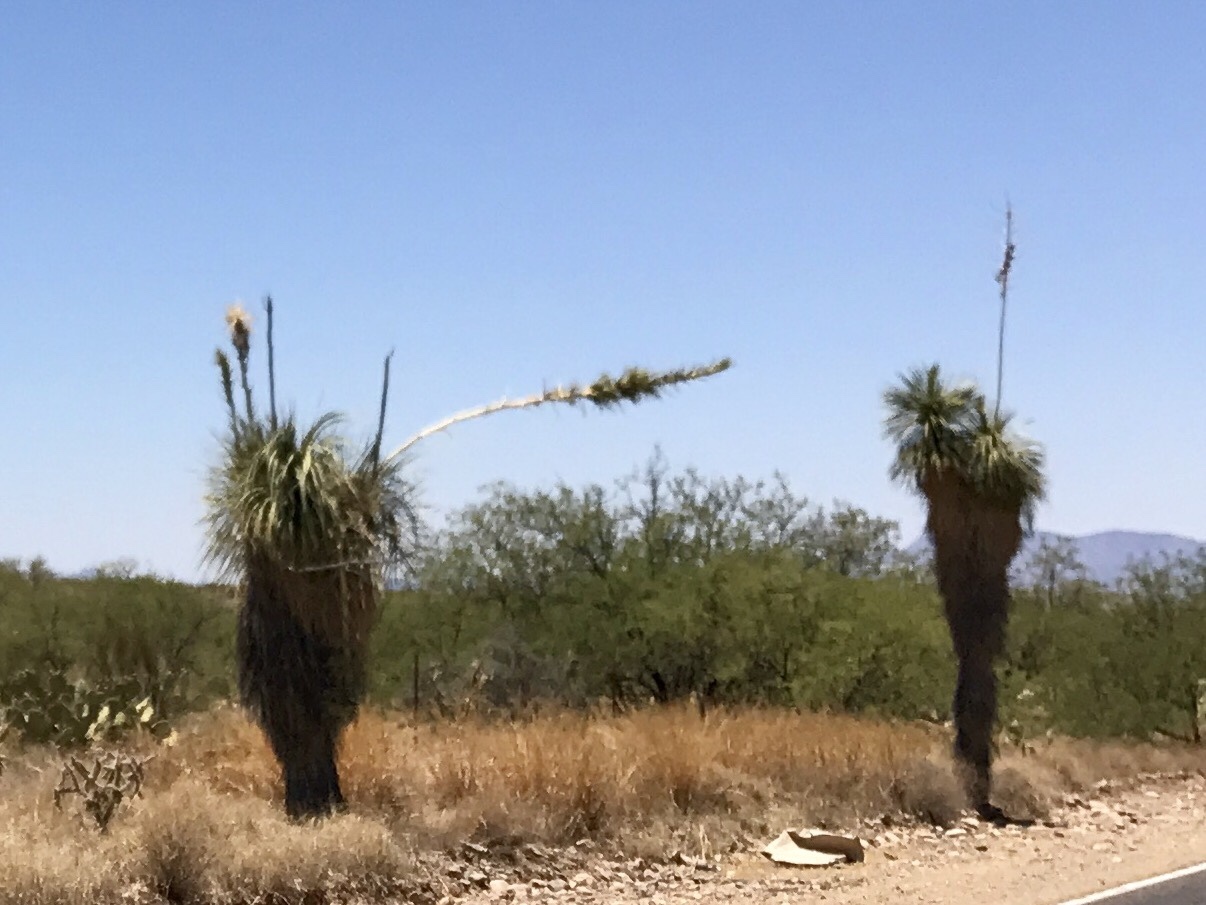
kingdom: Plantae
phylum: Tracheophyta
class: Liliopsida
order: Asparagales
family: Asparagaceae
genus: Yucca
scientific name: Yucca elata
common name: Palmella
